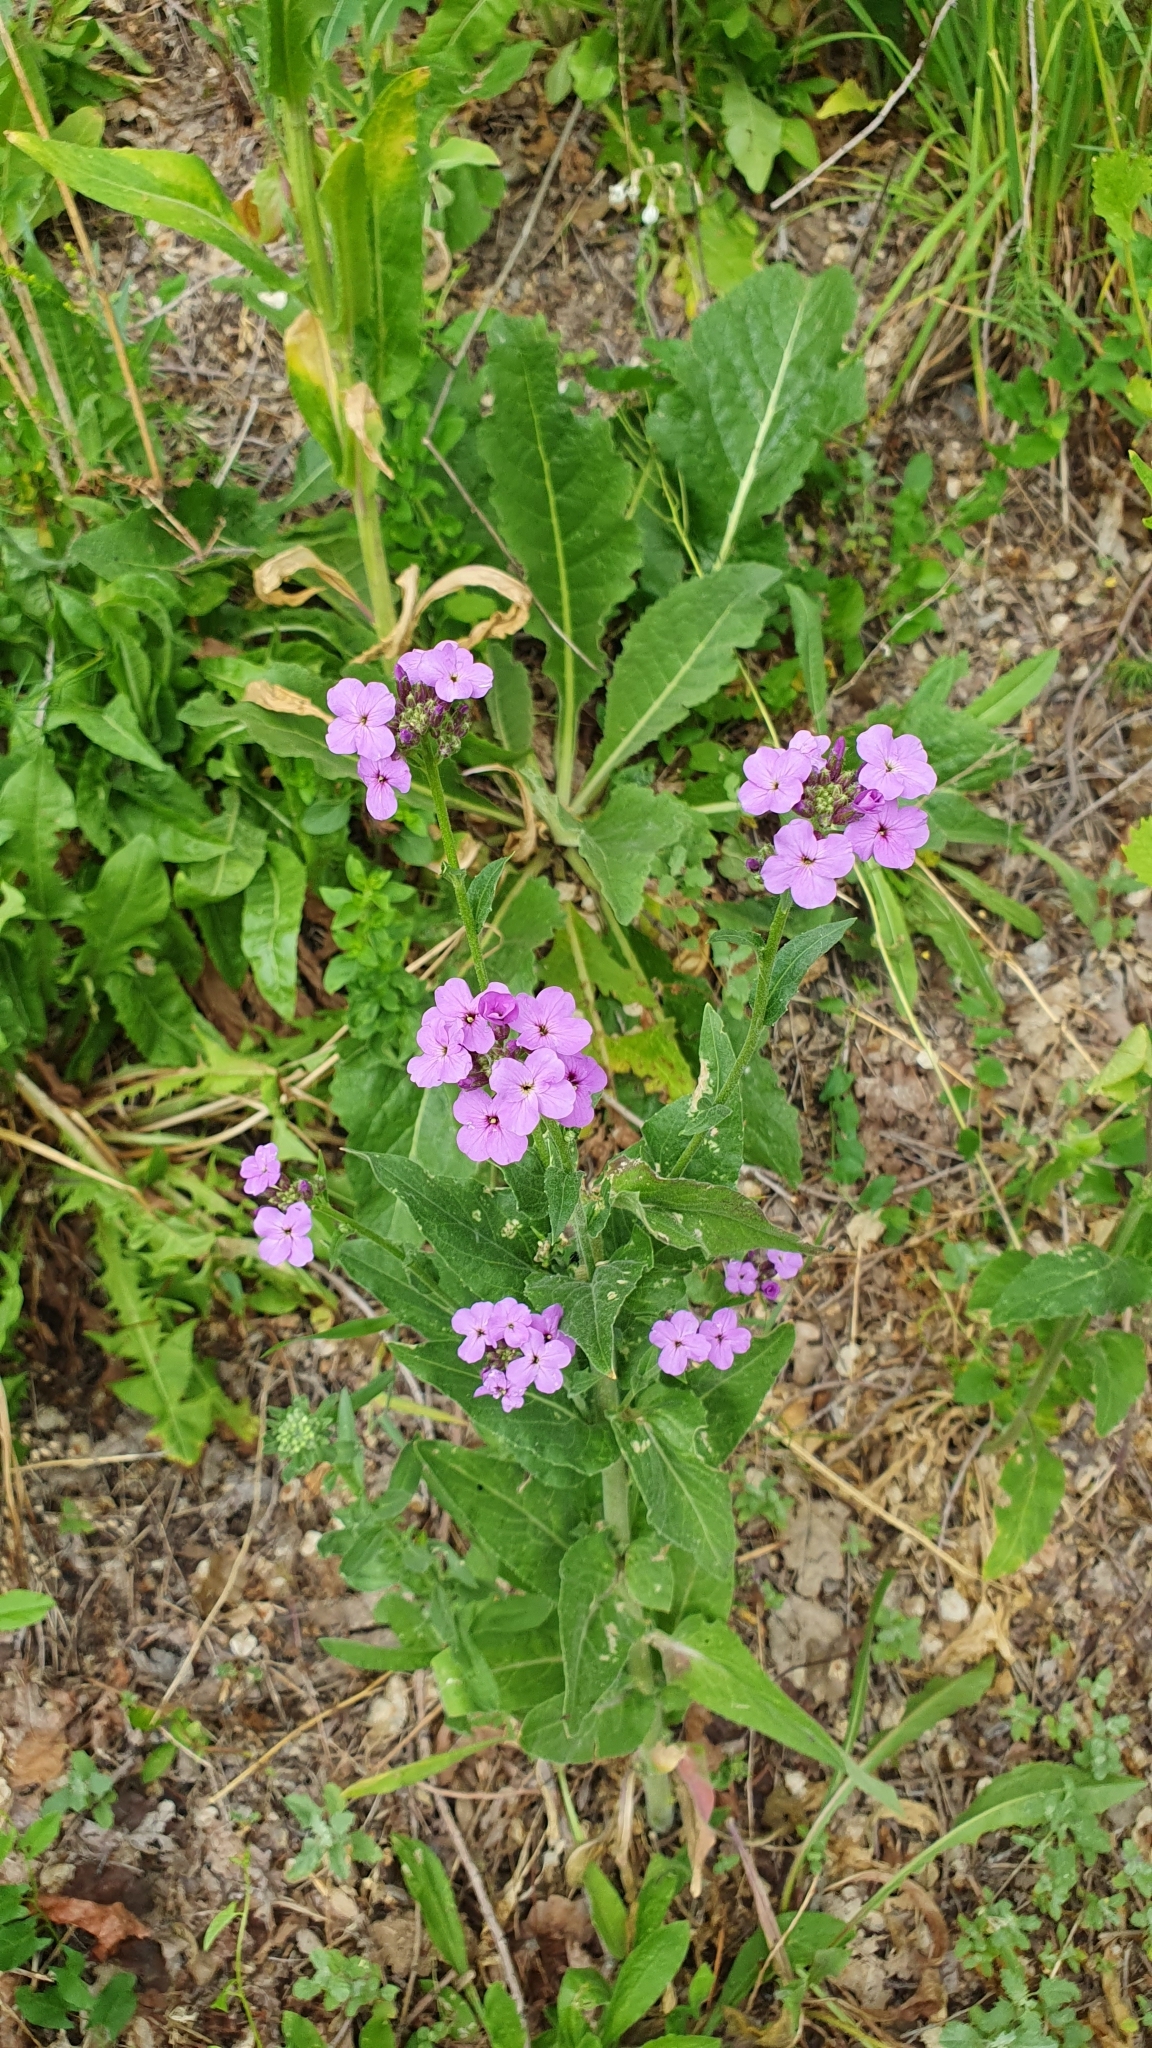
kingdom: Plantae
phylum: Tracheophyta
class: Magnoliopsida
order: Brassicales
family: Brassicaceae
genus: Hesperis
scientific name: Hesperis matronalis
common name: Dame's-violet
